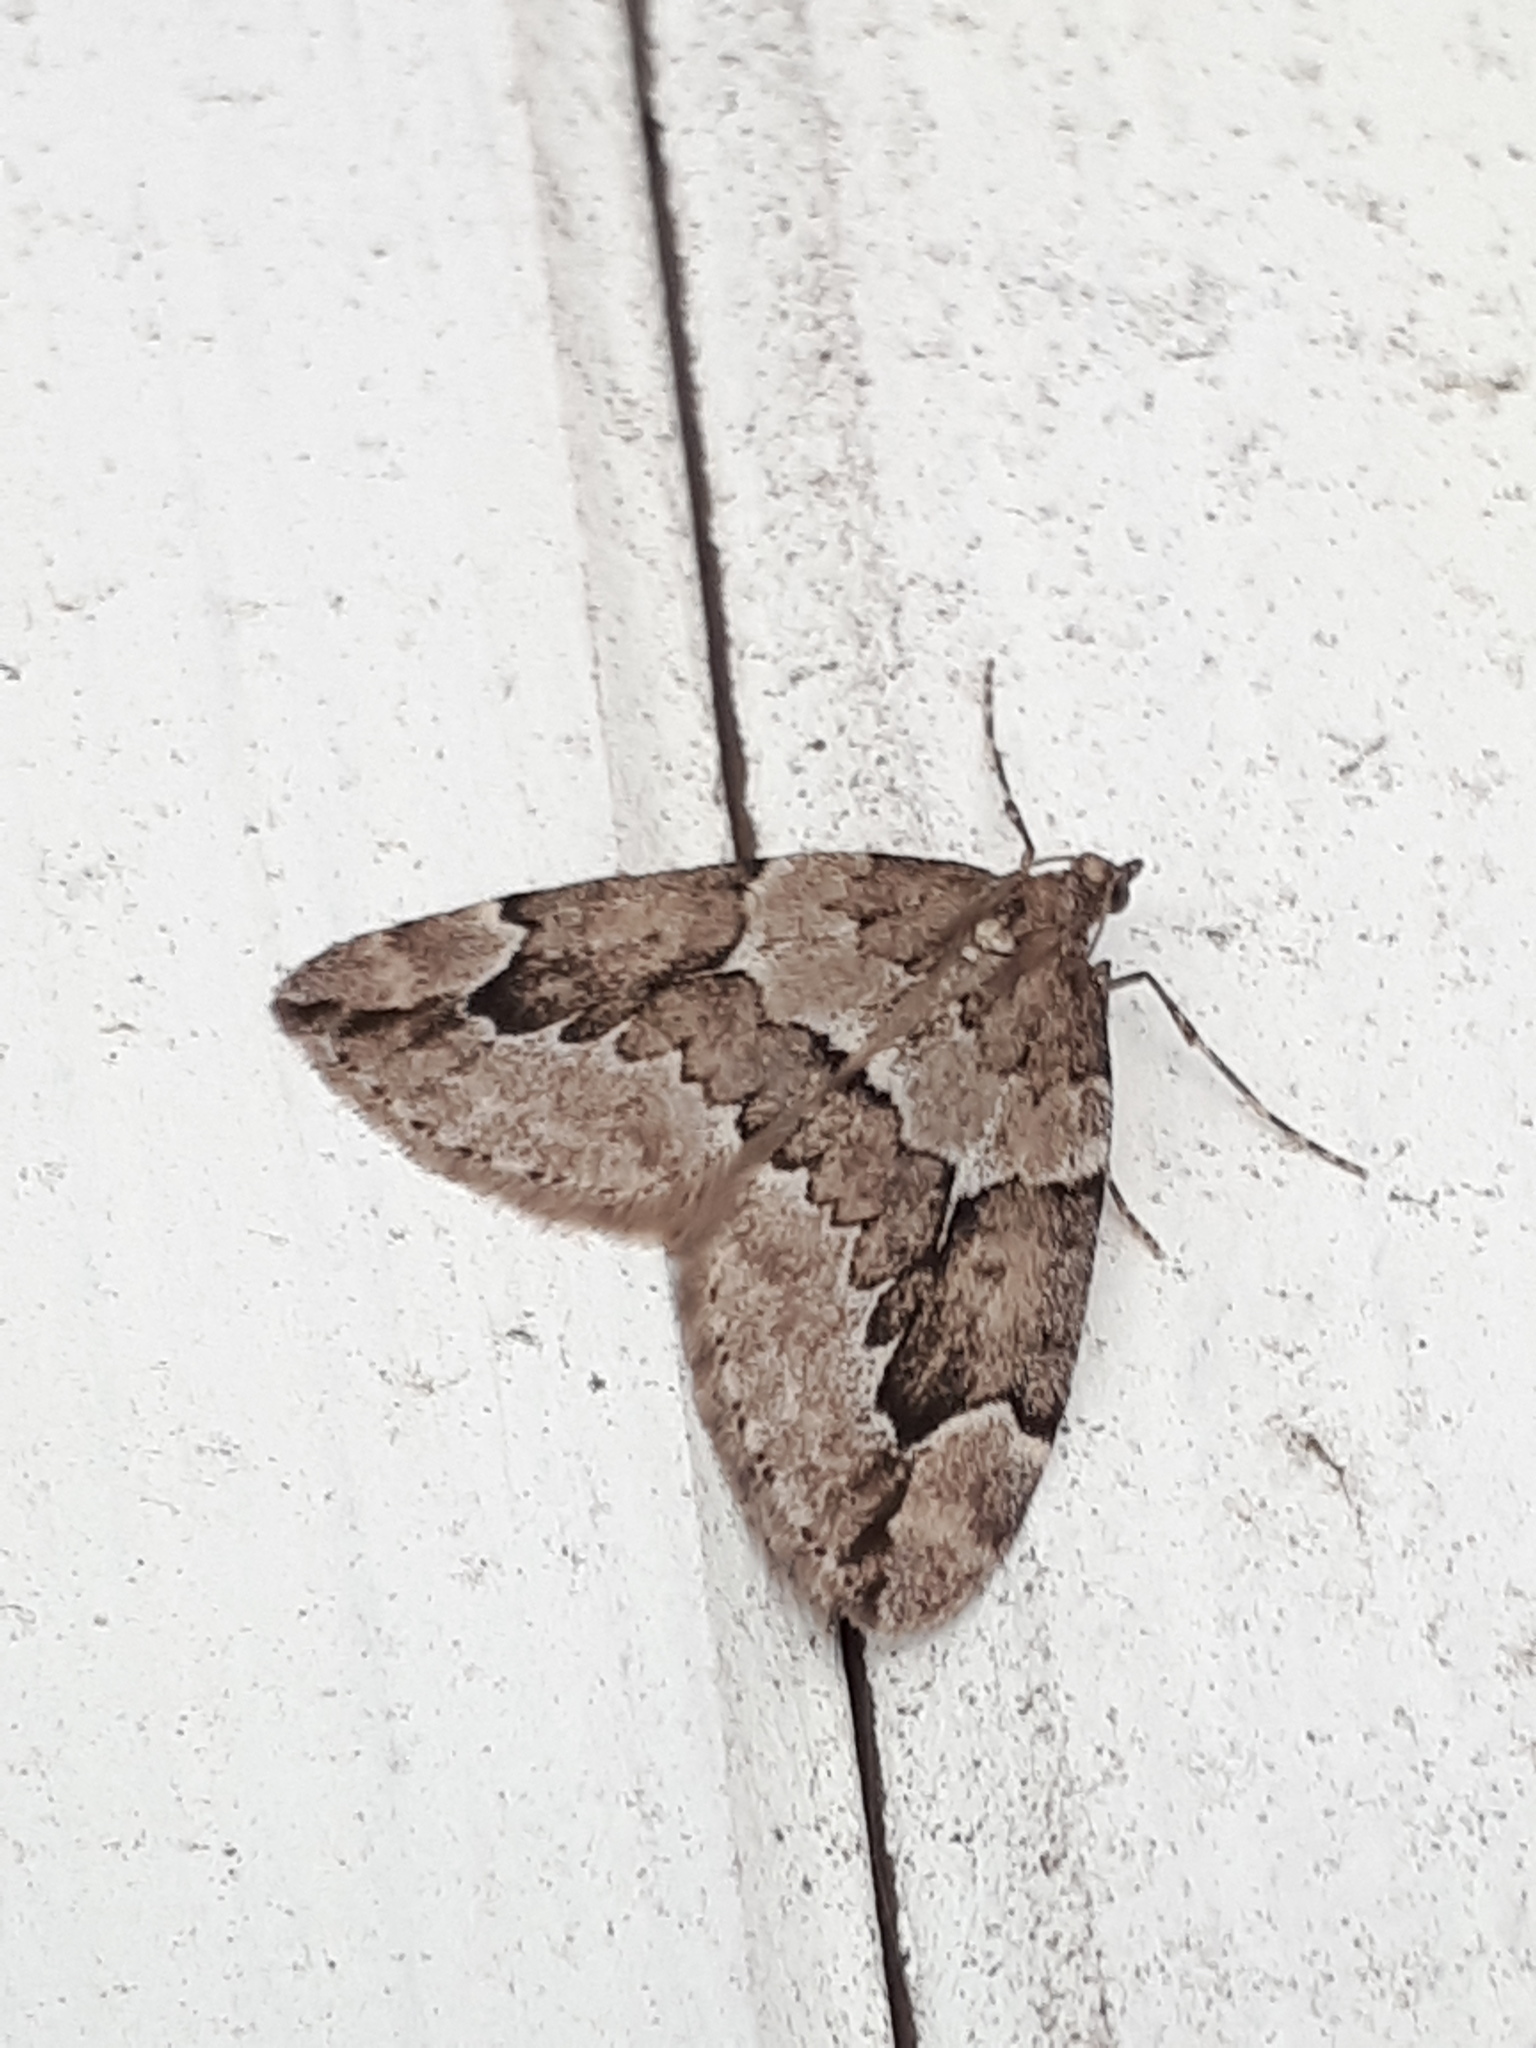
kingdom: Animalia
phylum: Arthropoda
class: Insecta
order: Lepidoptera
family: Geometridae
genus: Thera
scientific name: Thera juniperata
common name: Juniper carpet
